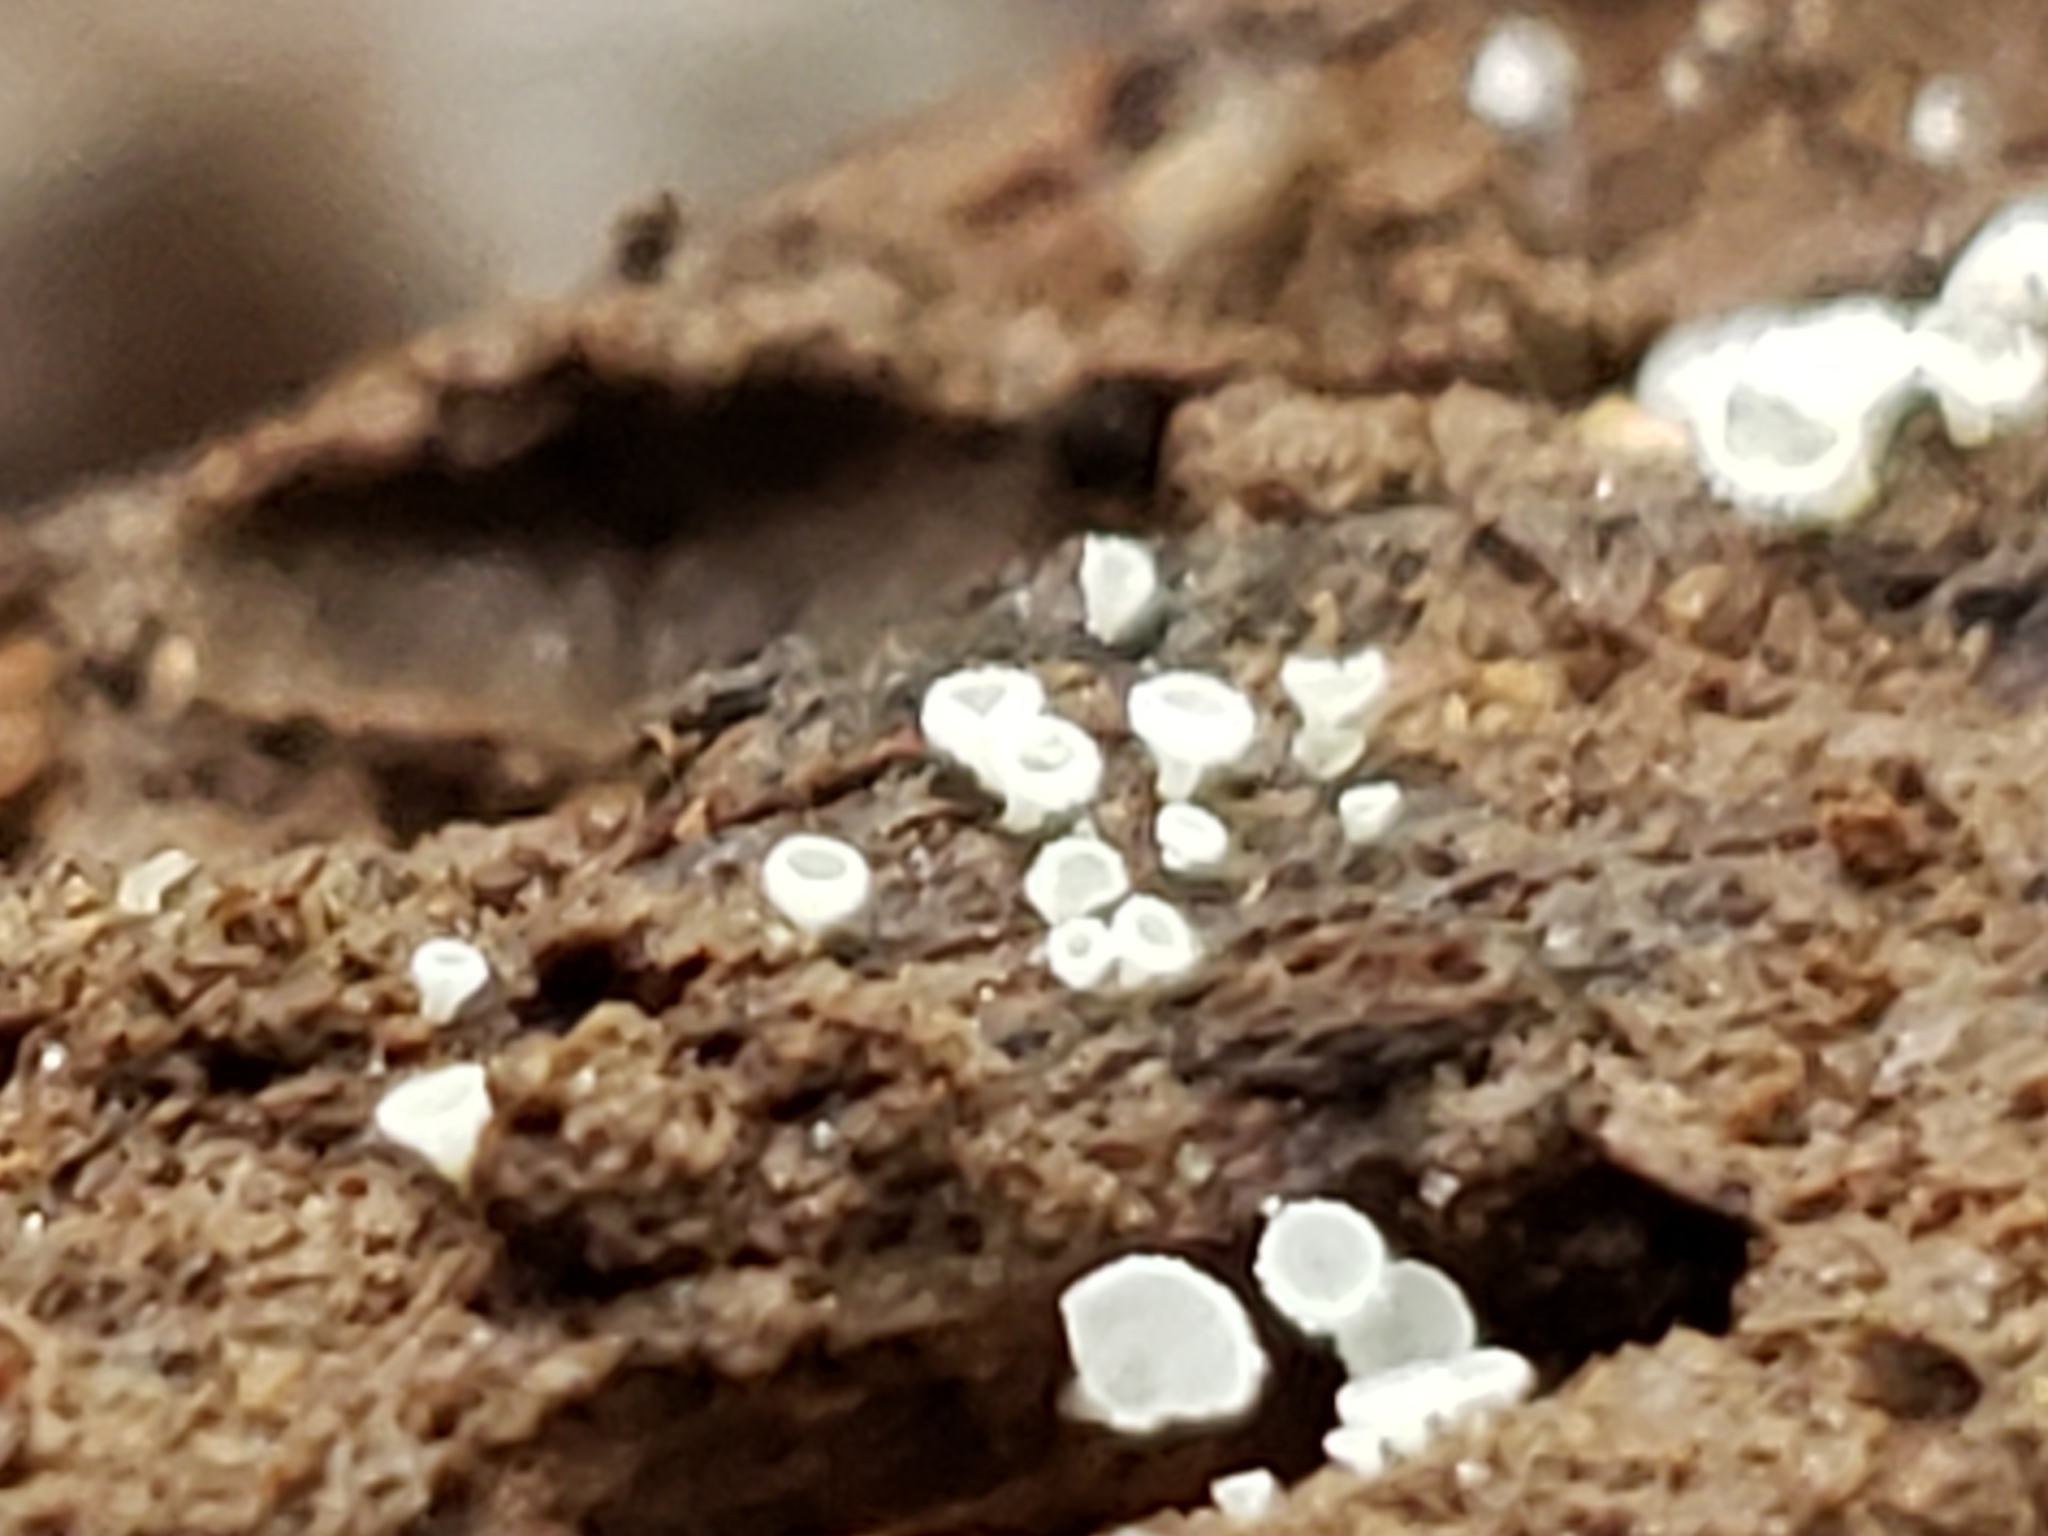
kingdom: Fungi
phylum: Ascomycota
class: Leotiomycetes
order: Helotiales
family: Lachnaceae
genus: Lachnum
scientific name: Lachnum virgineum
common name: Snowy disco
